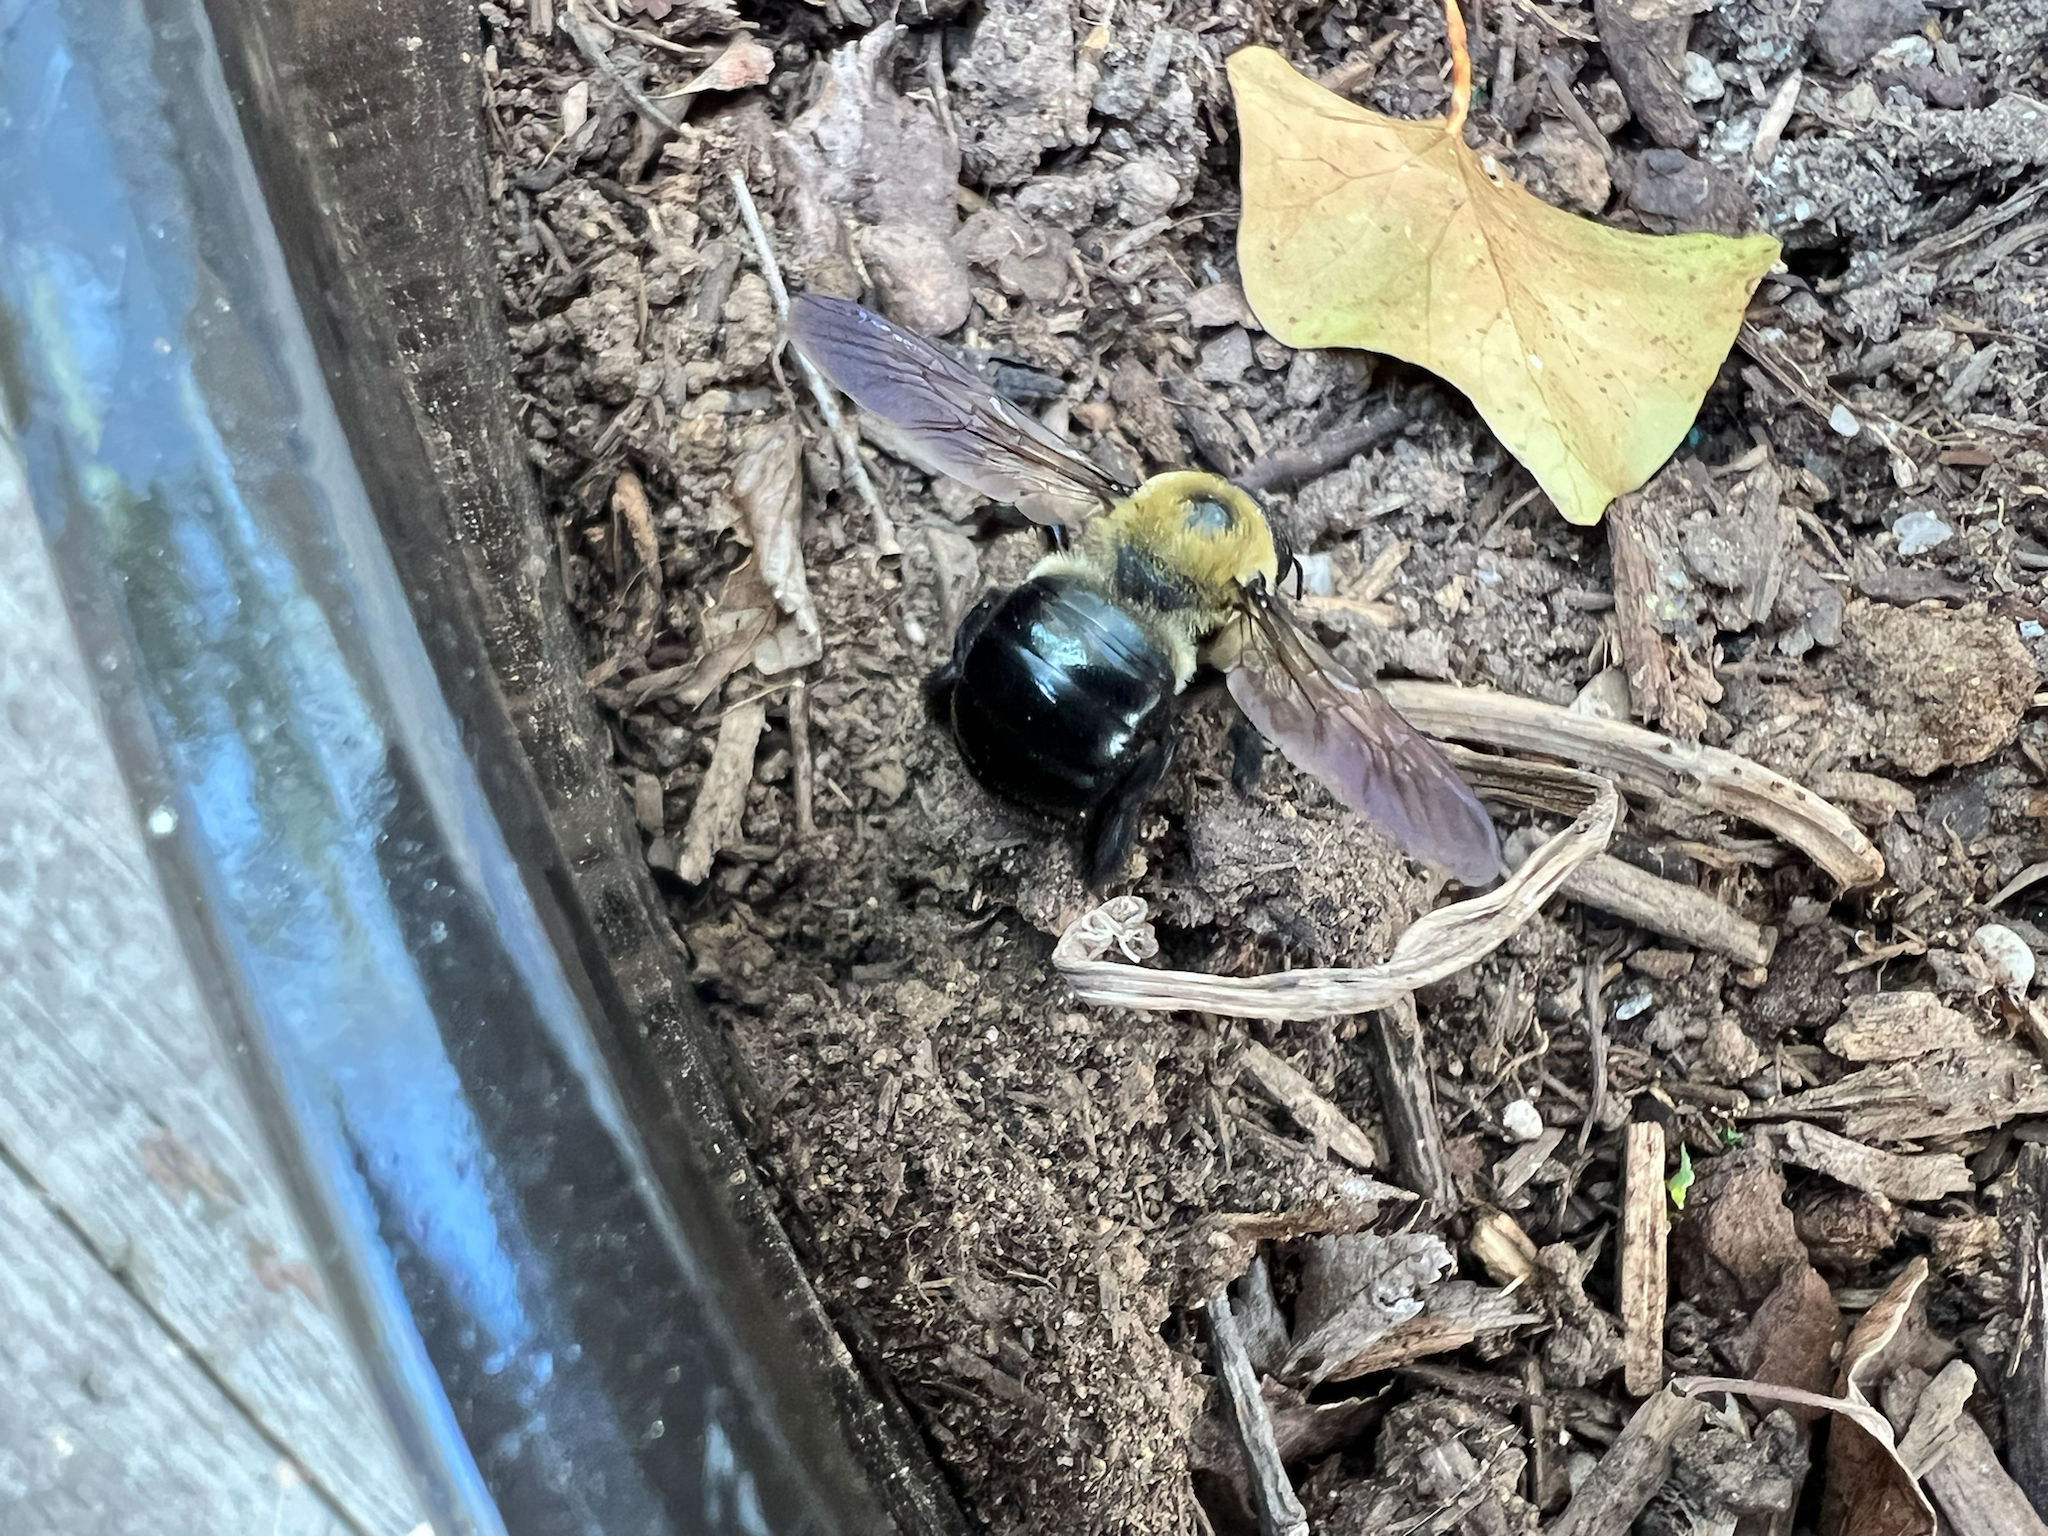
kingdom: Animalia
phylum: Arthropoda
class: Insecta
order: Hymenoptera
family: Apidae
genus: Xylocopa
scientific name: Xylocopa virginica
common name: Carpenter bee
